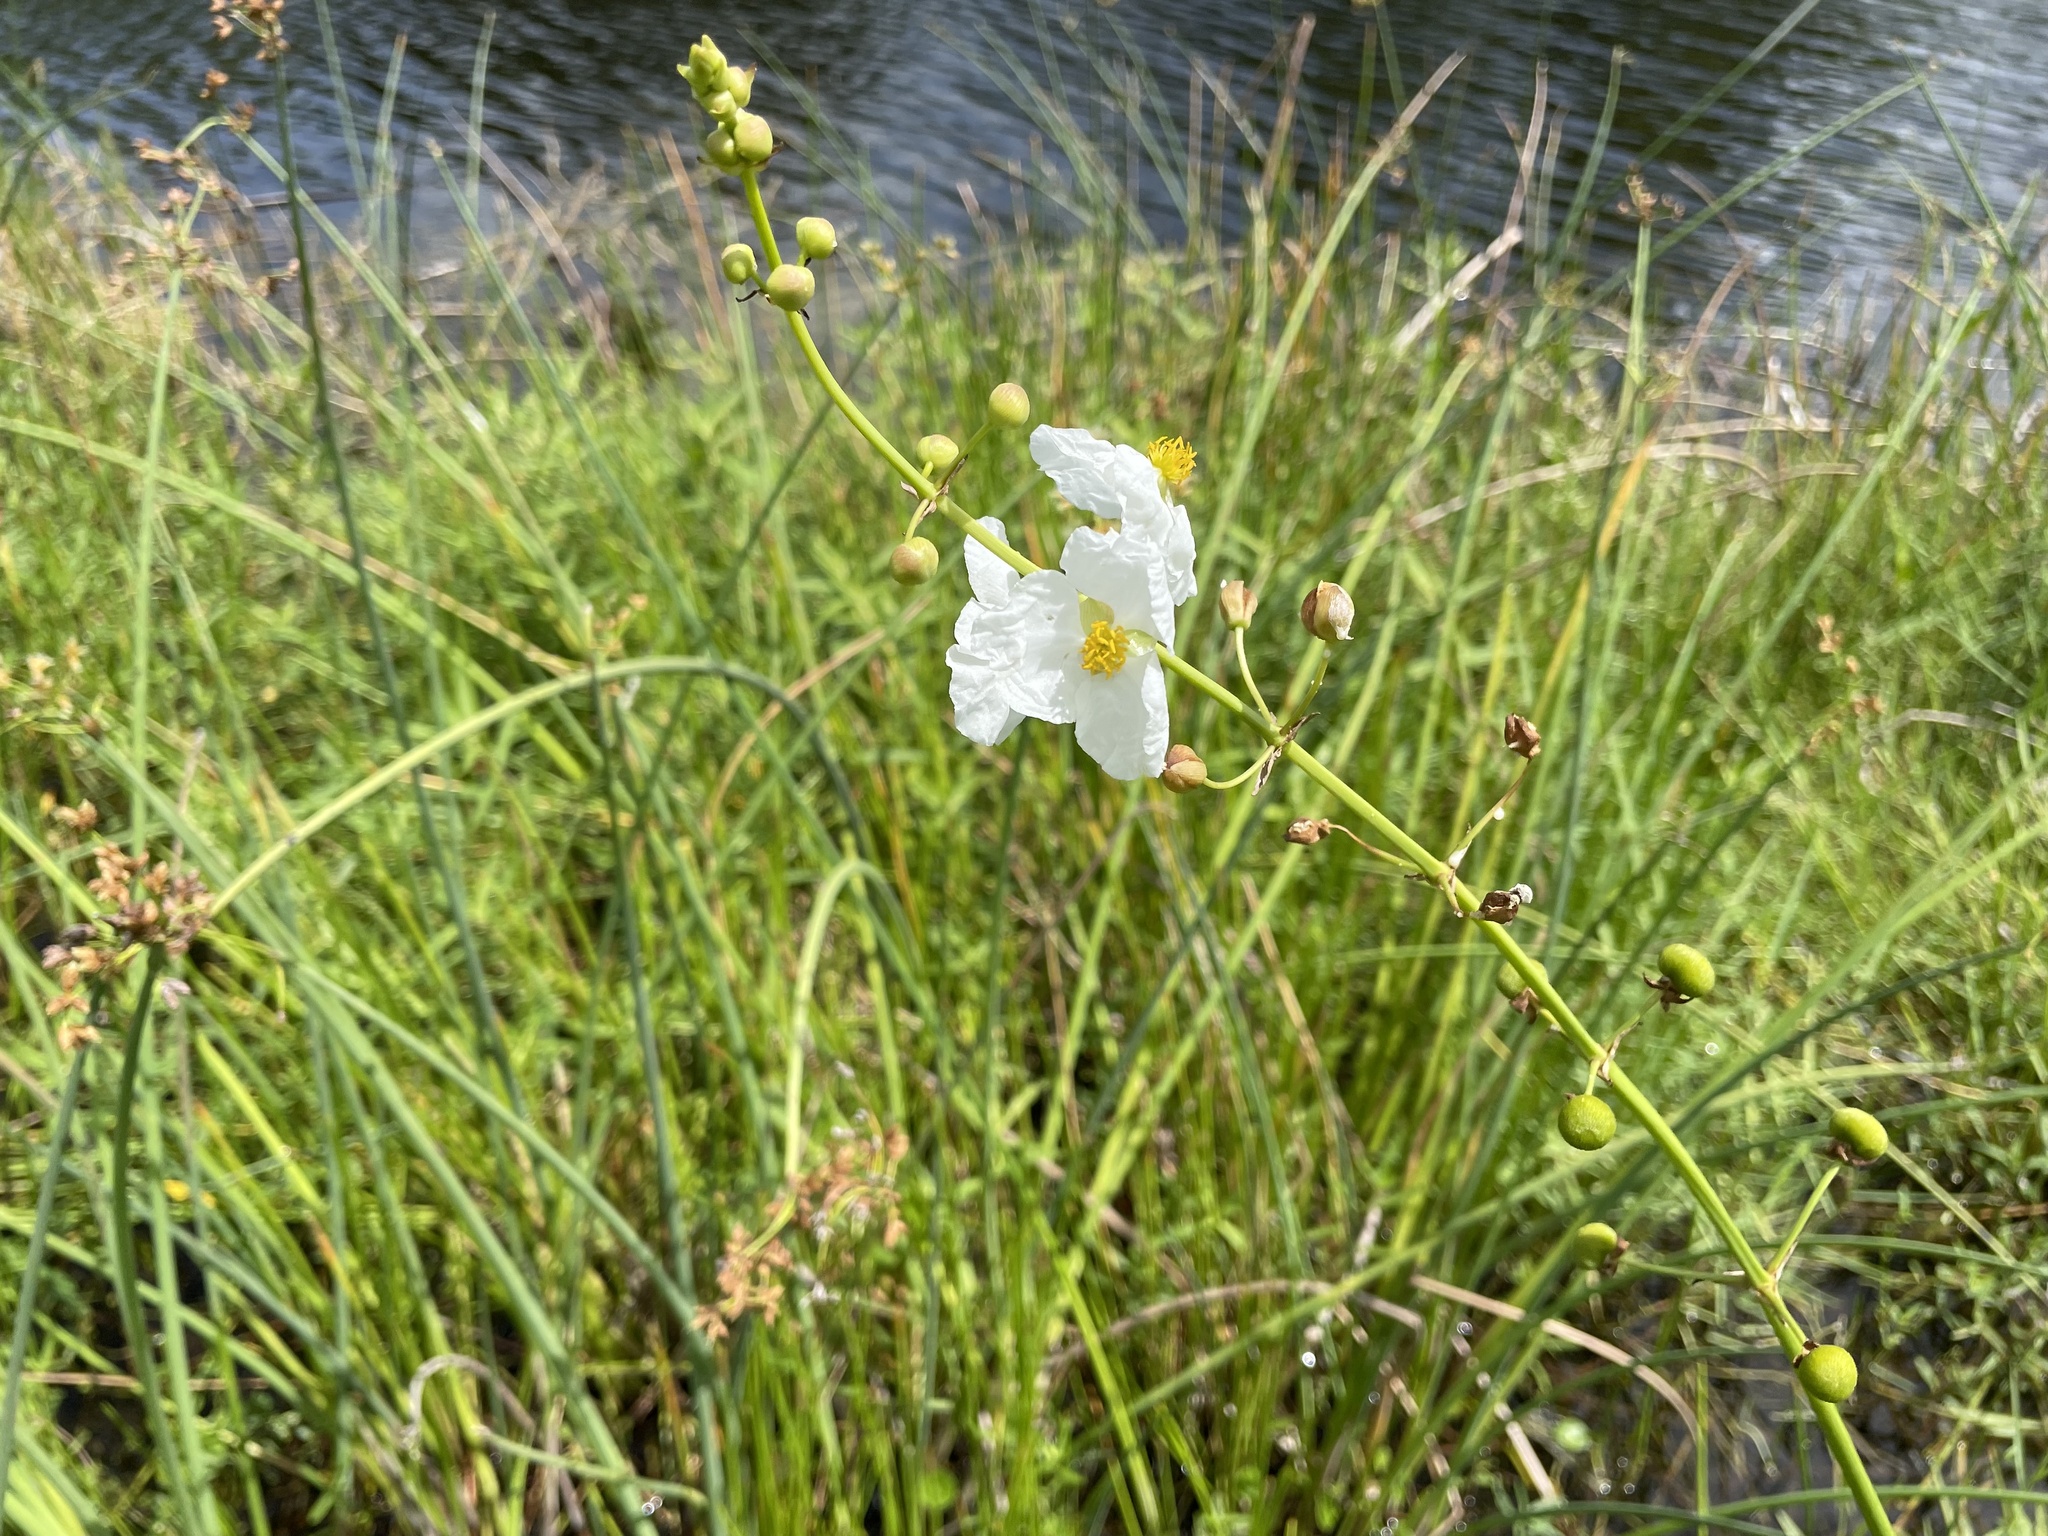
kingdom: Plantae
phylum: Tracheophyta
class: Liliopsida
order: Alismatales
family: Alismataceae
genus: Sagittaria
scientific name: Sagittaria lancifolia
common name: Lance-leaf arrowhead
